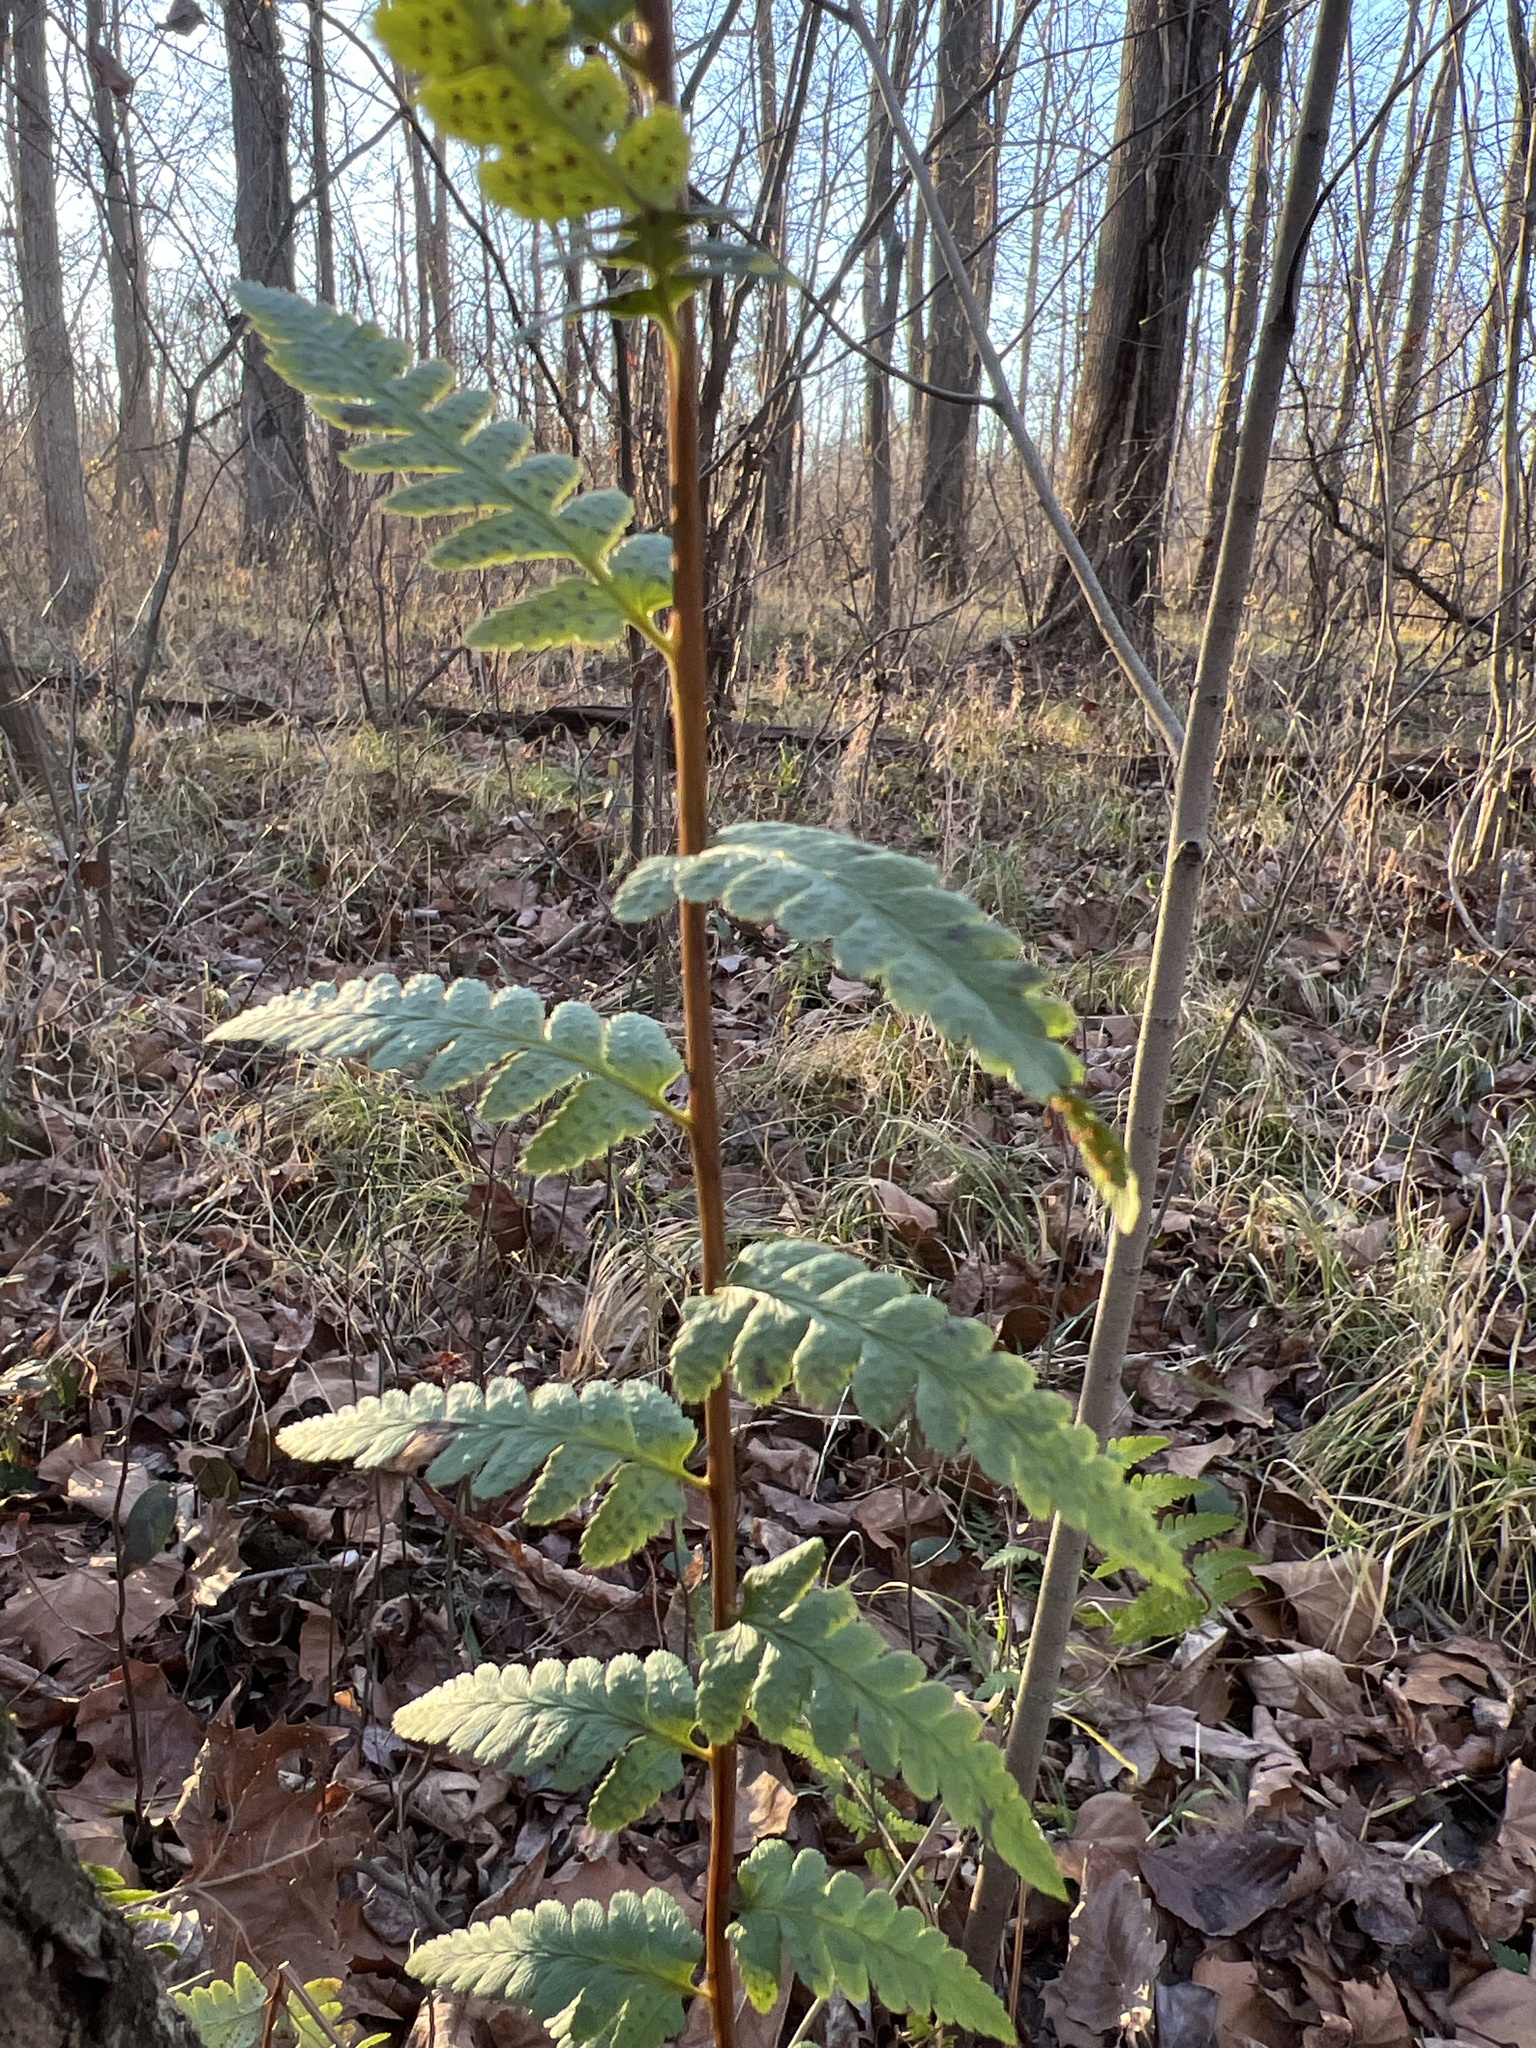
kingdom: Plantae
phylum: Tracheophyta
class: Polypodiopsida
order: Polypodiales
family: Dryopteridaceae
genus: Dryopteris
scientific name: Dryopteris cristata
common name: Crested wood fern
